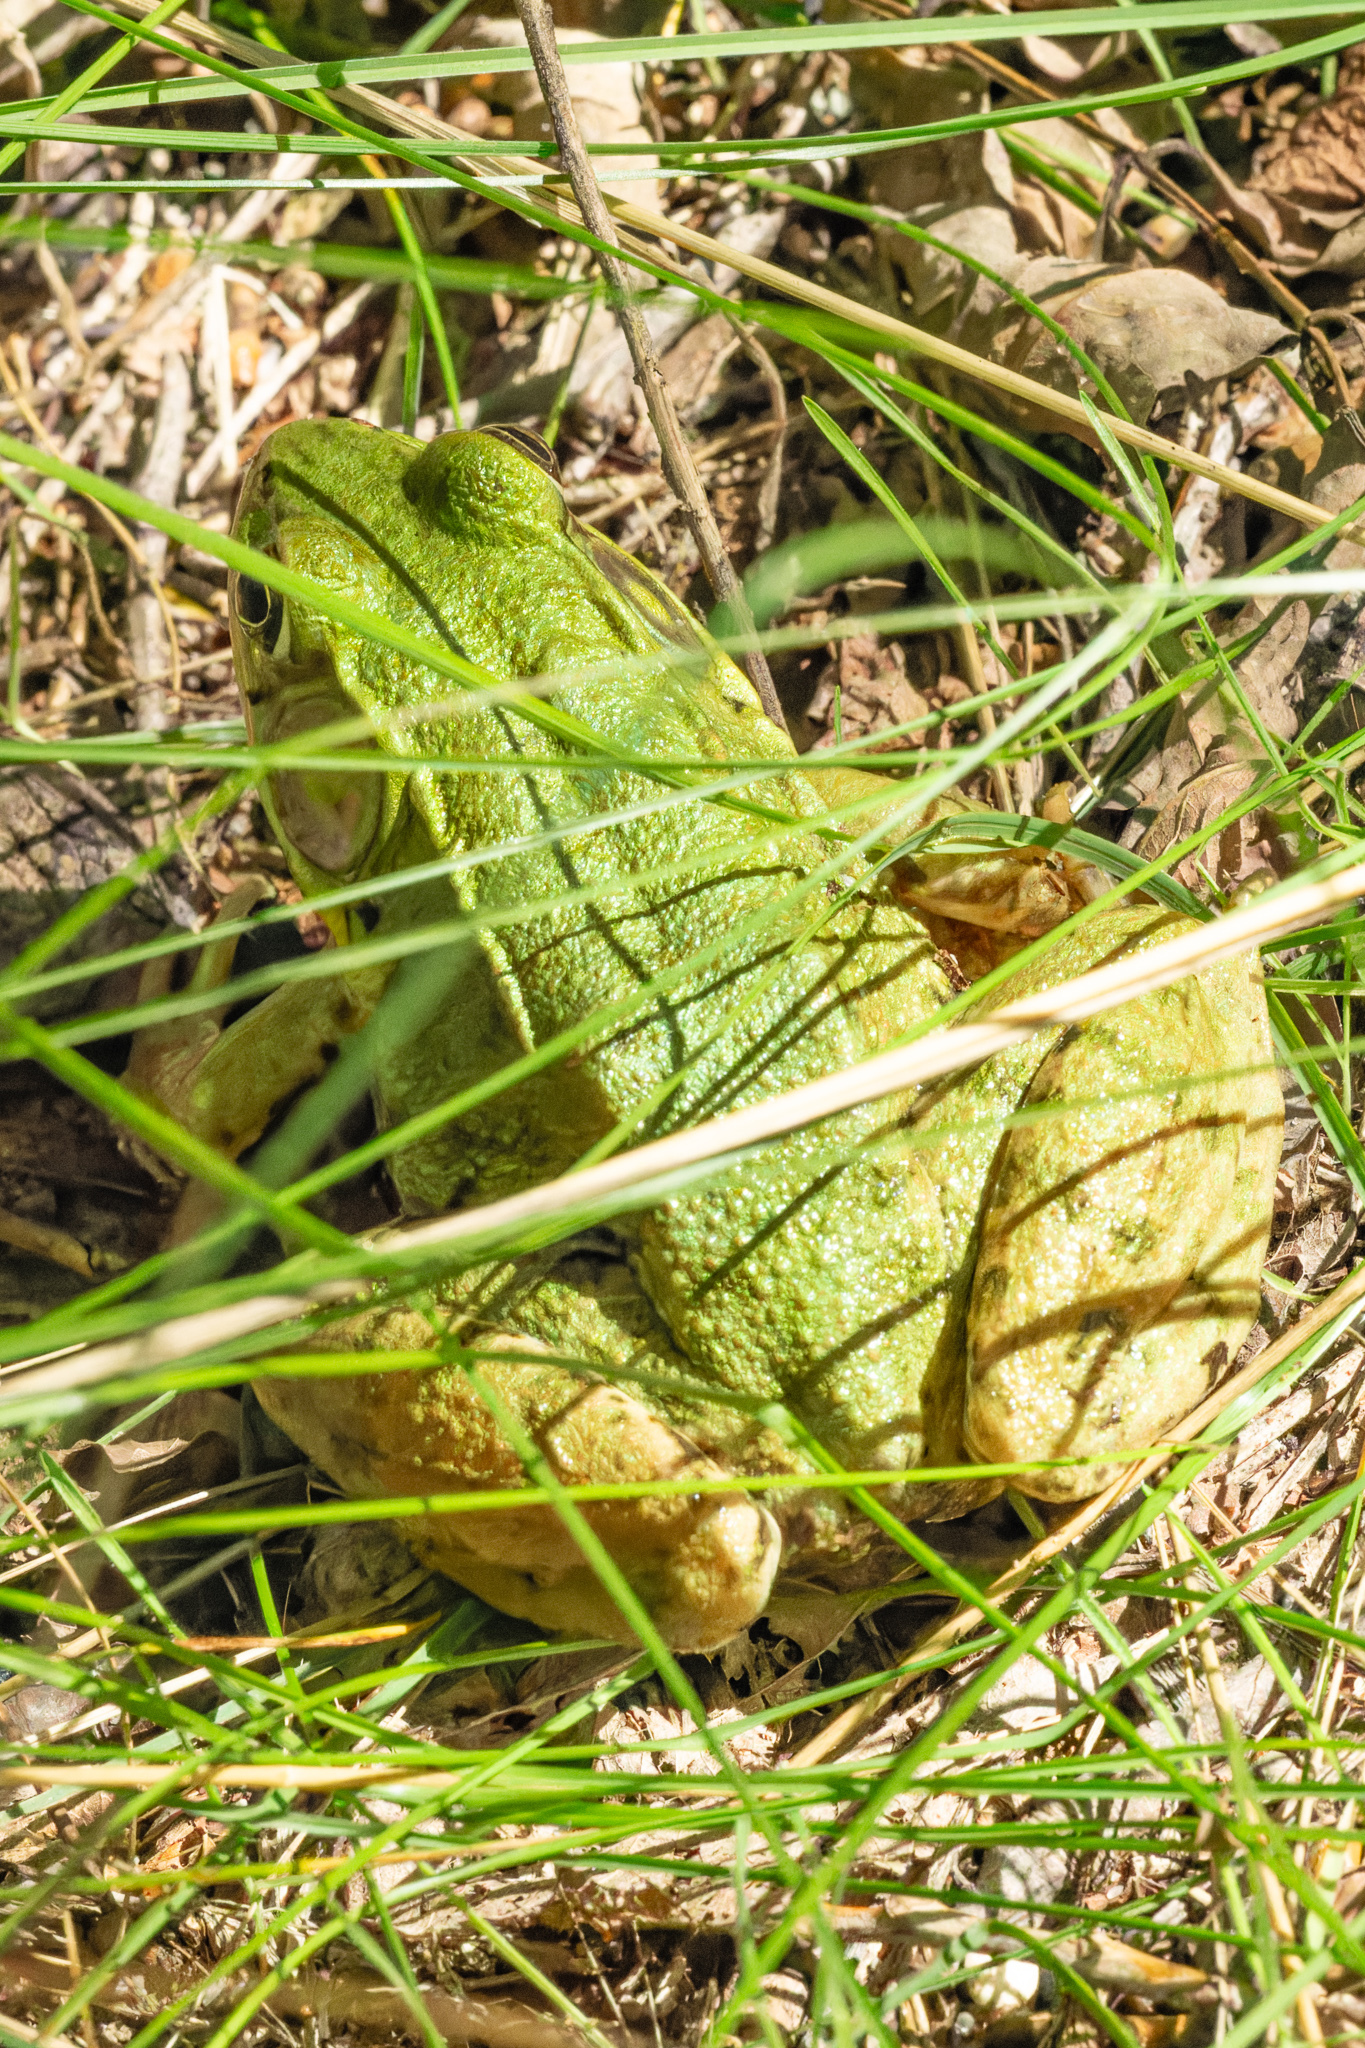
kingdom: Animalia
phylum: Chordata
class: Amphibia
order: Anura
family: Ranidae
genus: Lithobates
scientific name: Lithobates clamitans
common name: Green frog
